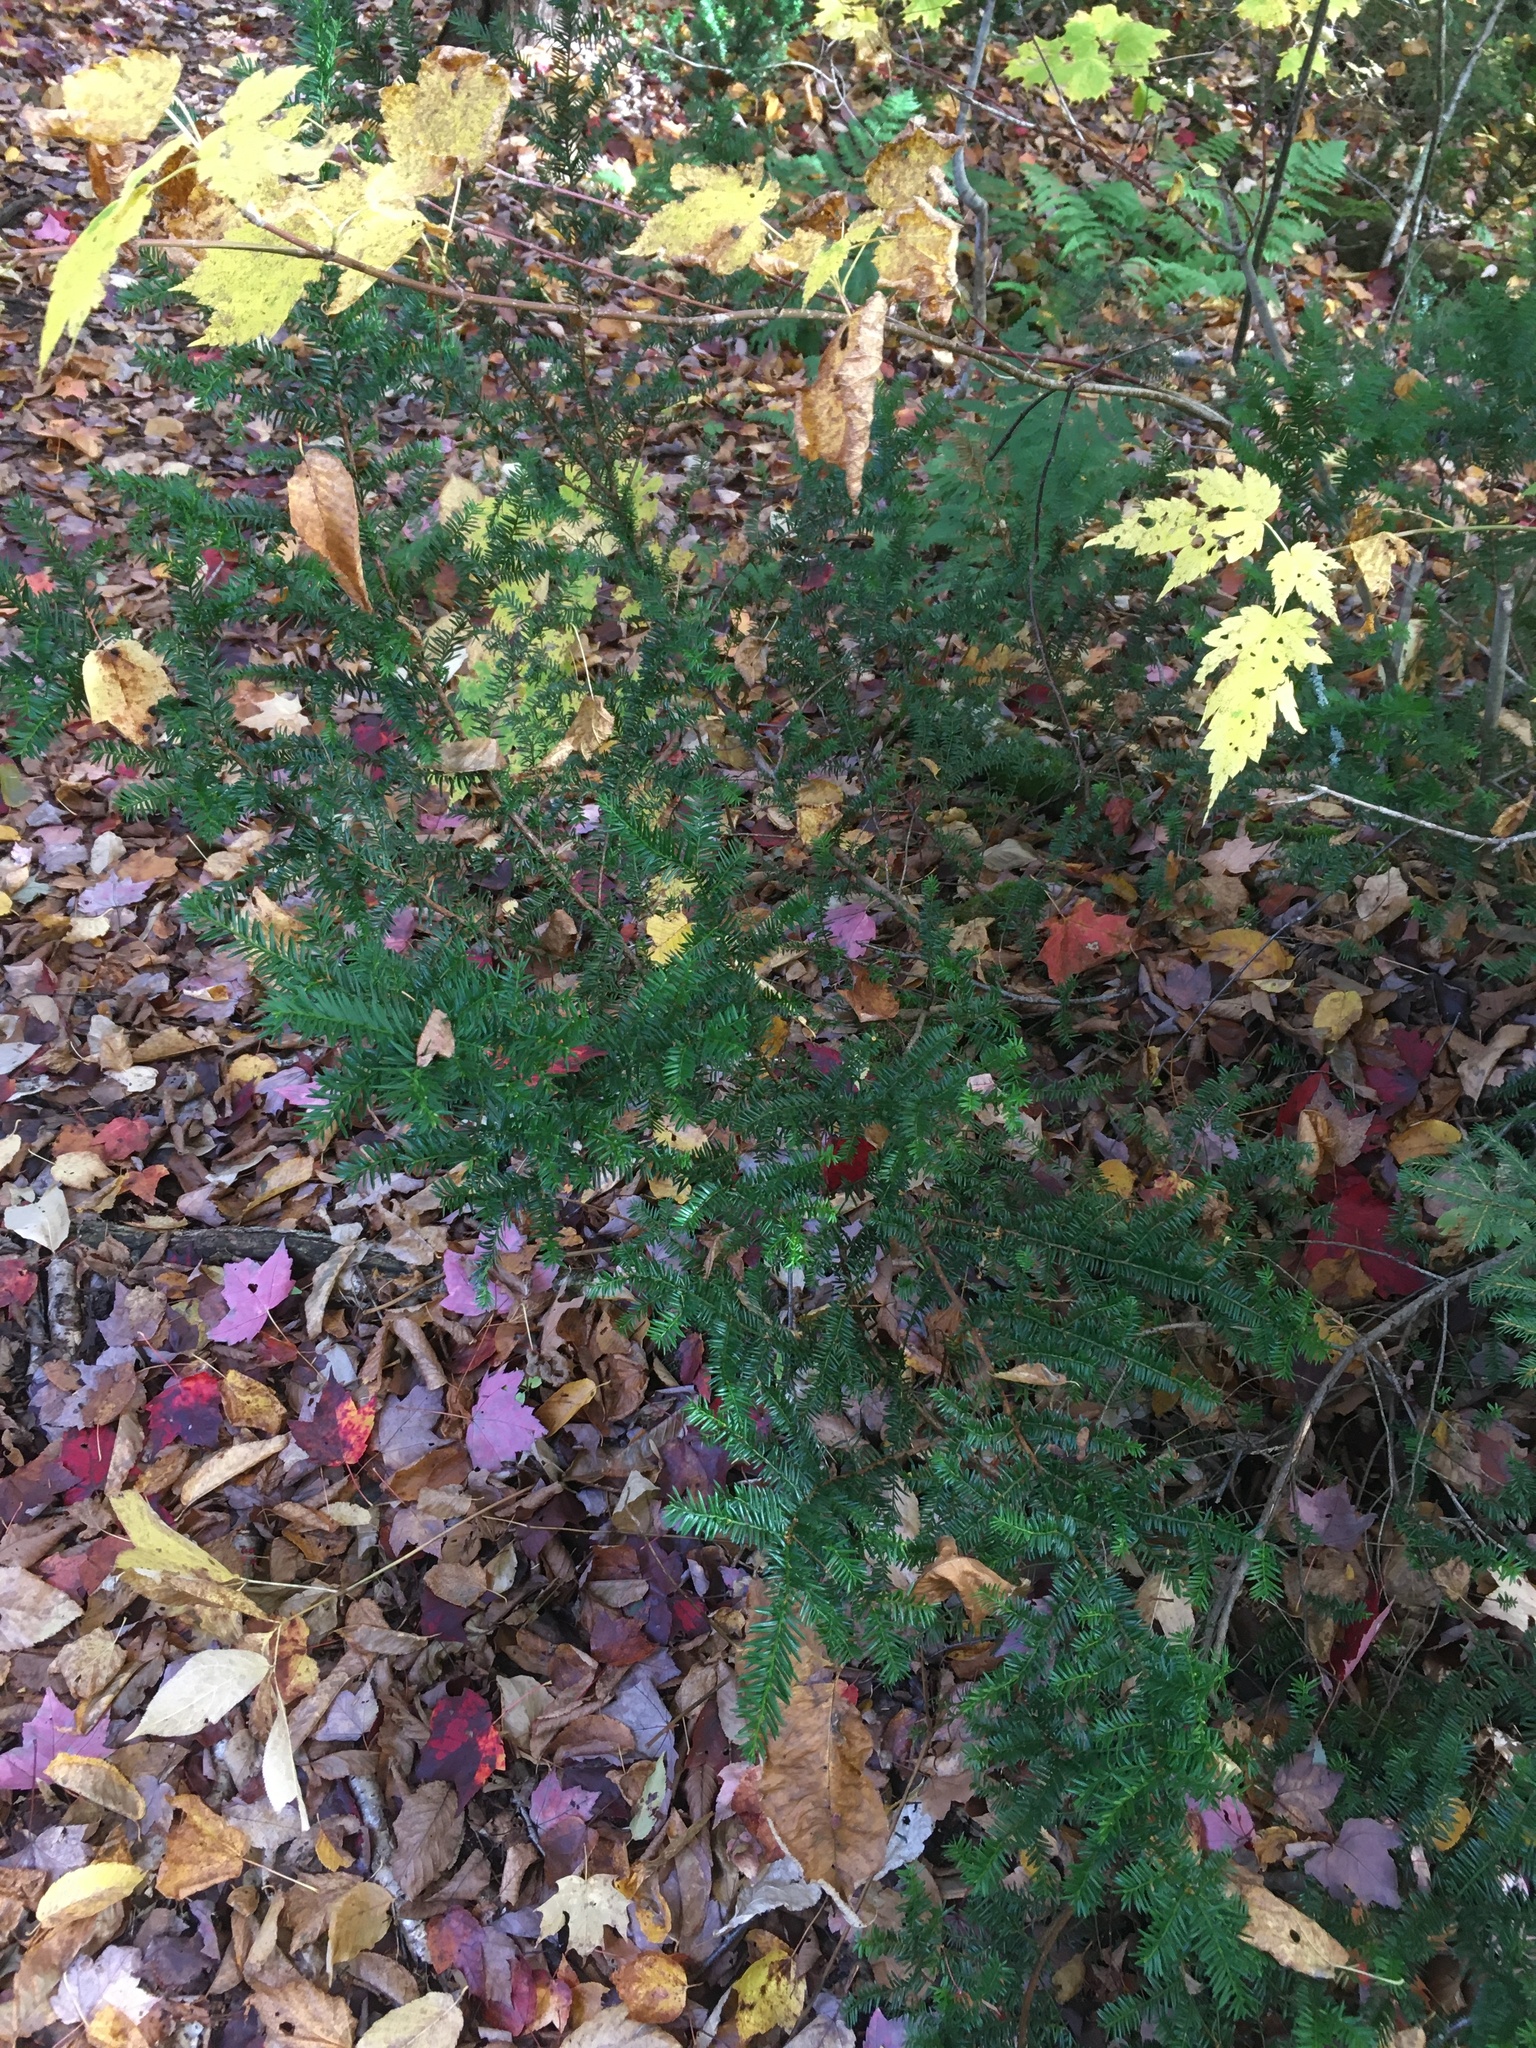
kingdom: Plantae
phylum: Tracheophyta
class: Pinopsida
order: Pinales
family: Taxaceae
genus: Taxus
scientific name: Taxus canadensis
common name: American yew
